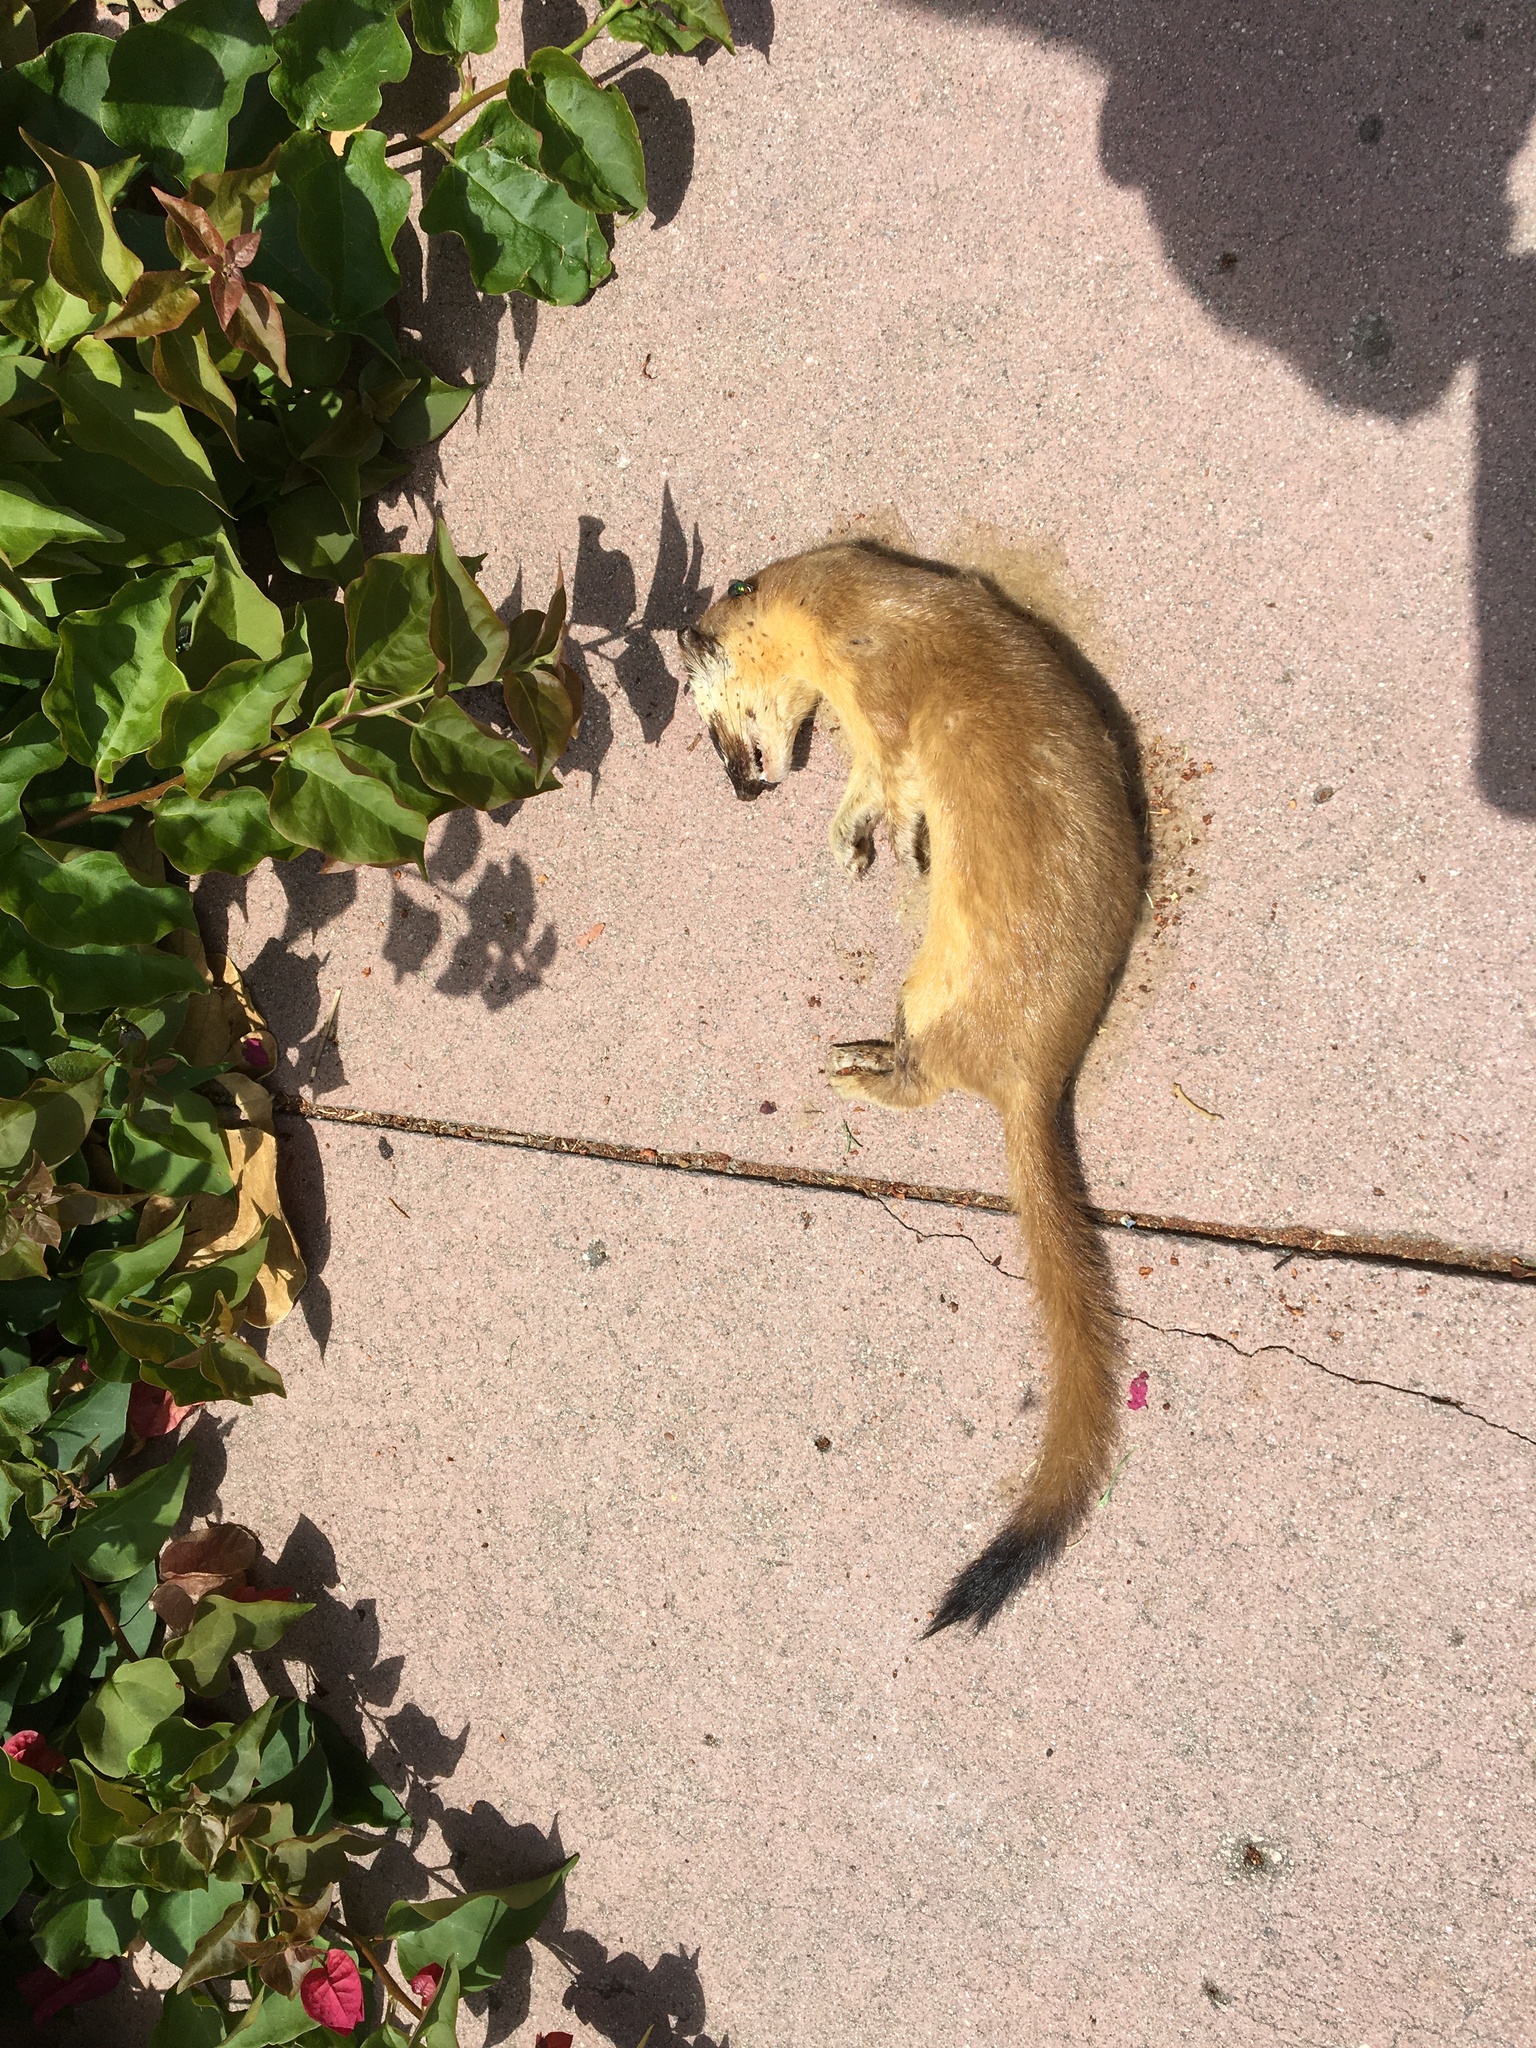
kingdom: Animalia
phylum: Chordata
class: Mammalia
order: Carnivora
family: Mustelidae
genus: Mustela
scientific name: Mustela
